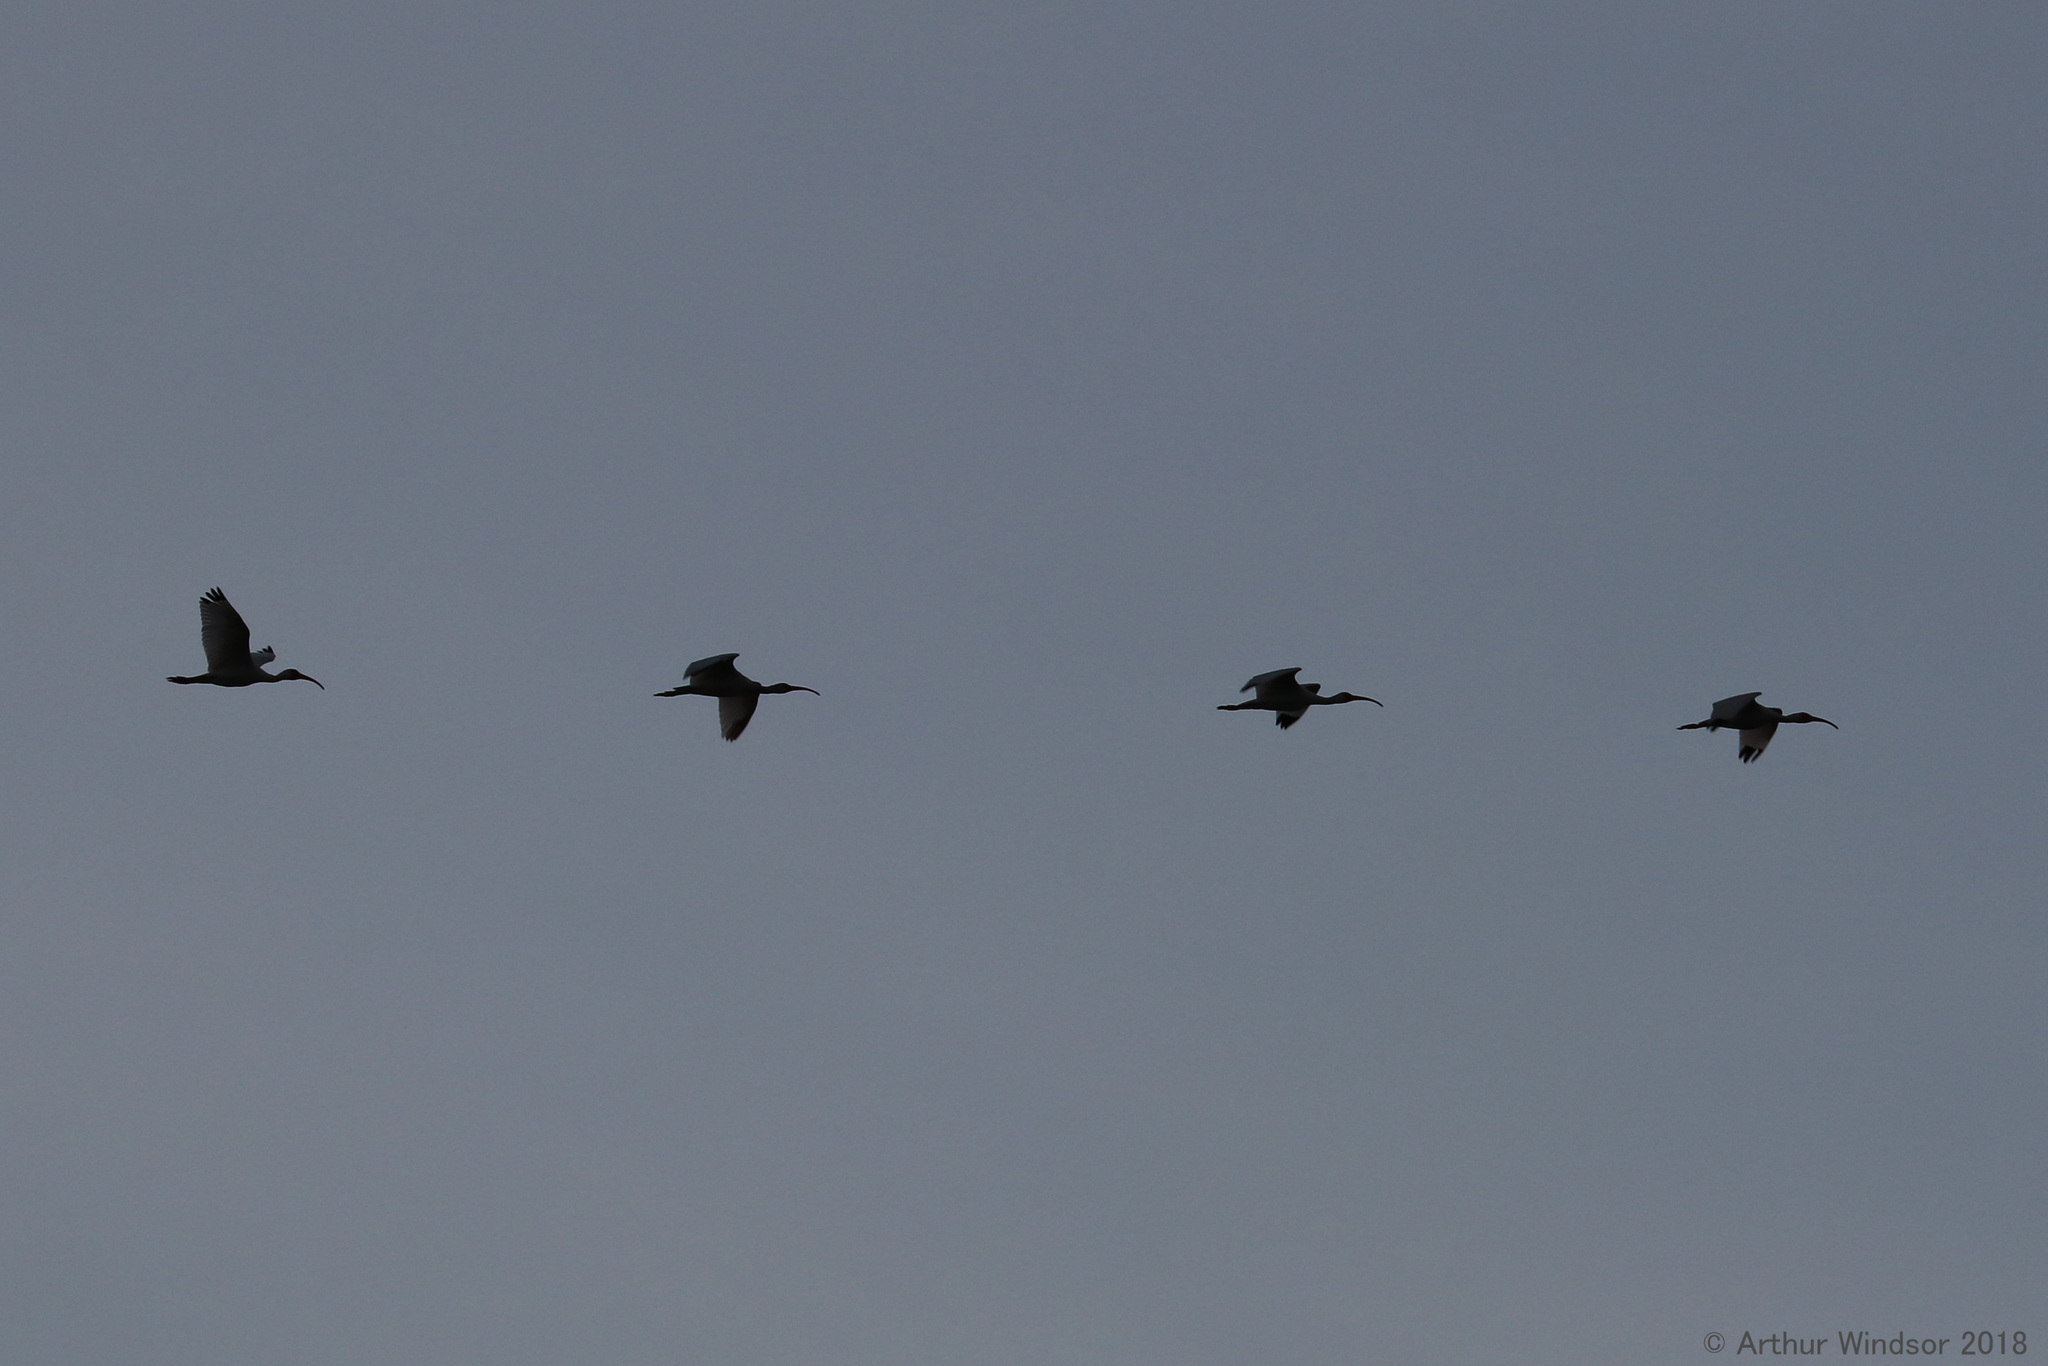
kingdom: Animalia
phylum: Chordata
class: Aves
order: Pelecaniformes
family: Threskiornithidae
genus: Eudocimus
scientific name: Eudocimus albus
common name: White ibis
